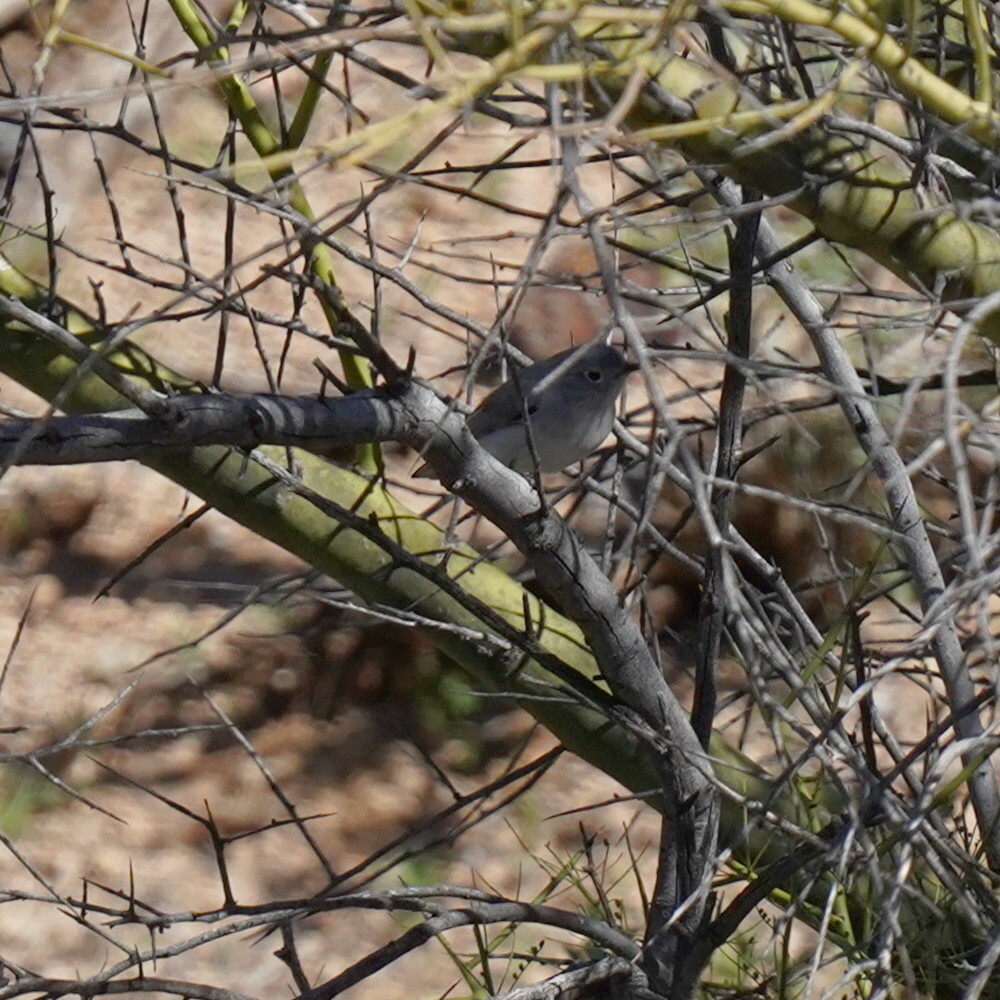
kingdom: Animalia
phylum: Chordata
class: Aves
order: Passeriformes
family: Polioptilidae
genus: Polioptila
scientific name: Polioptila caerulea
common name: Blue-gray gnatcatcher
